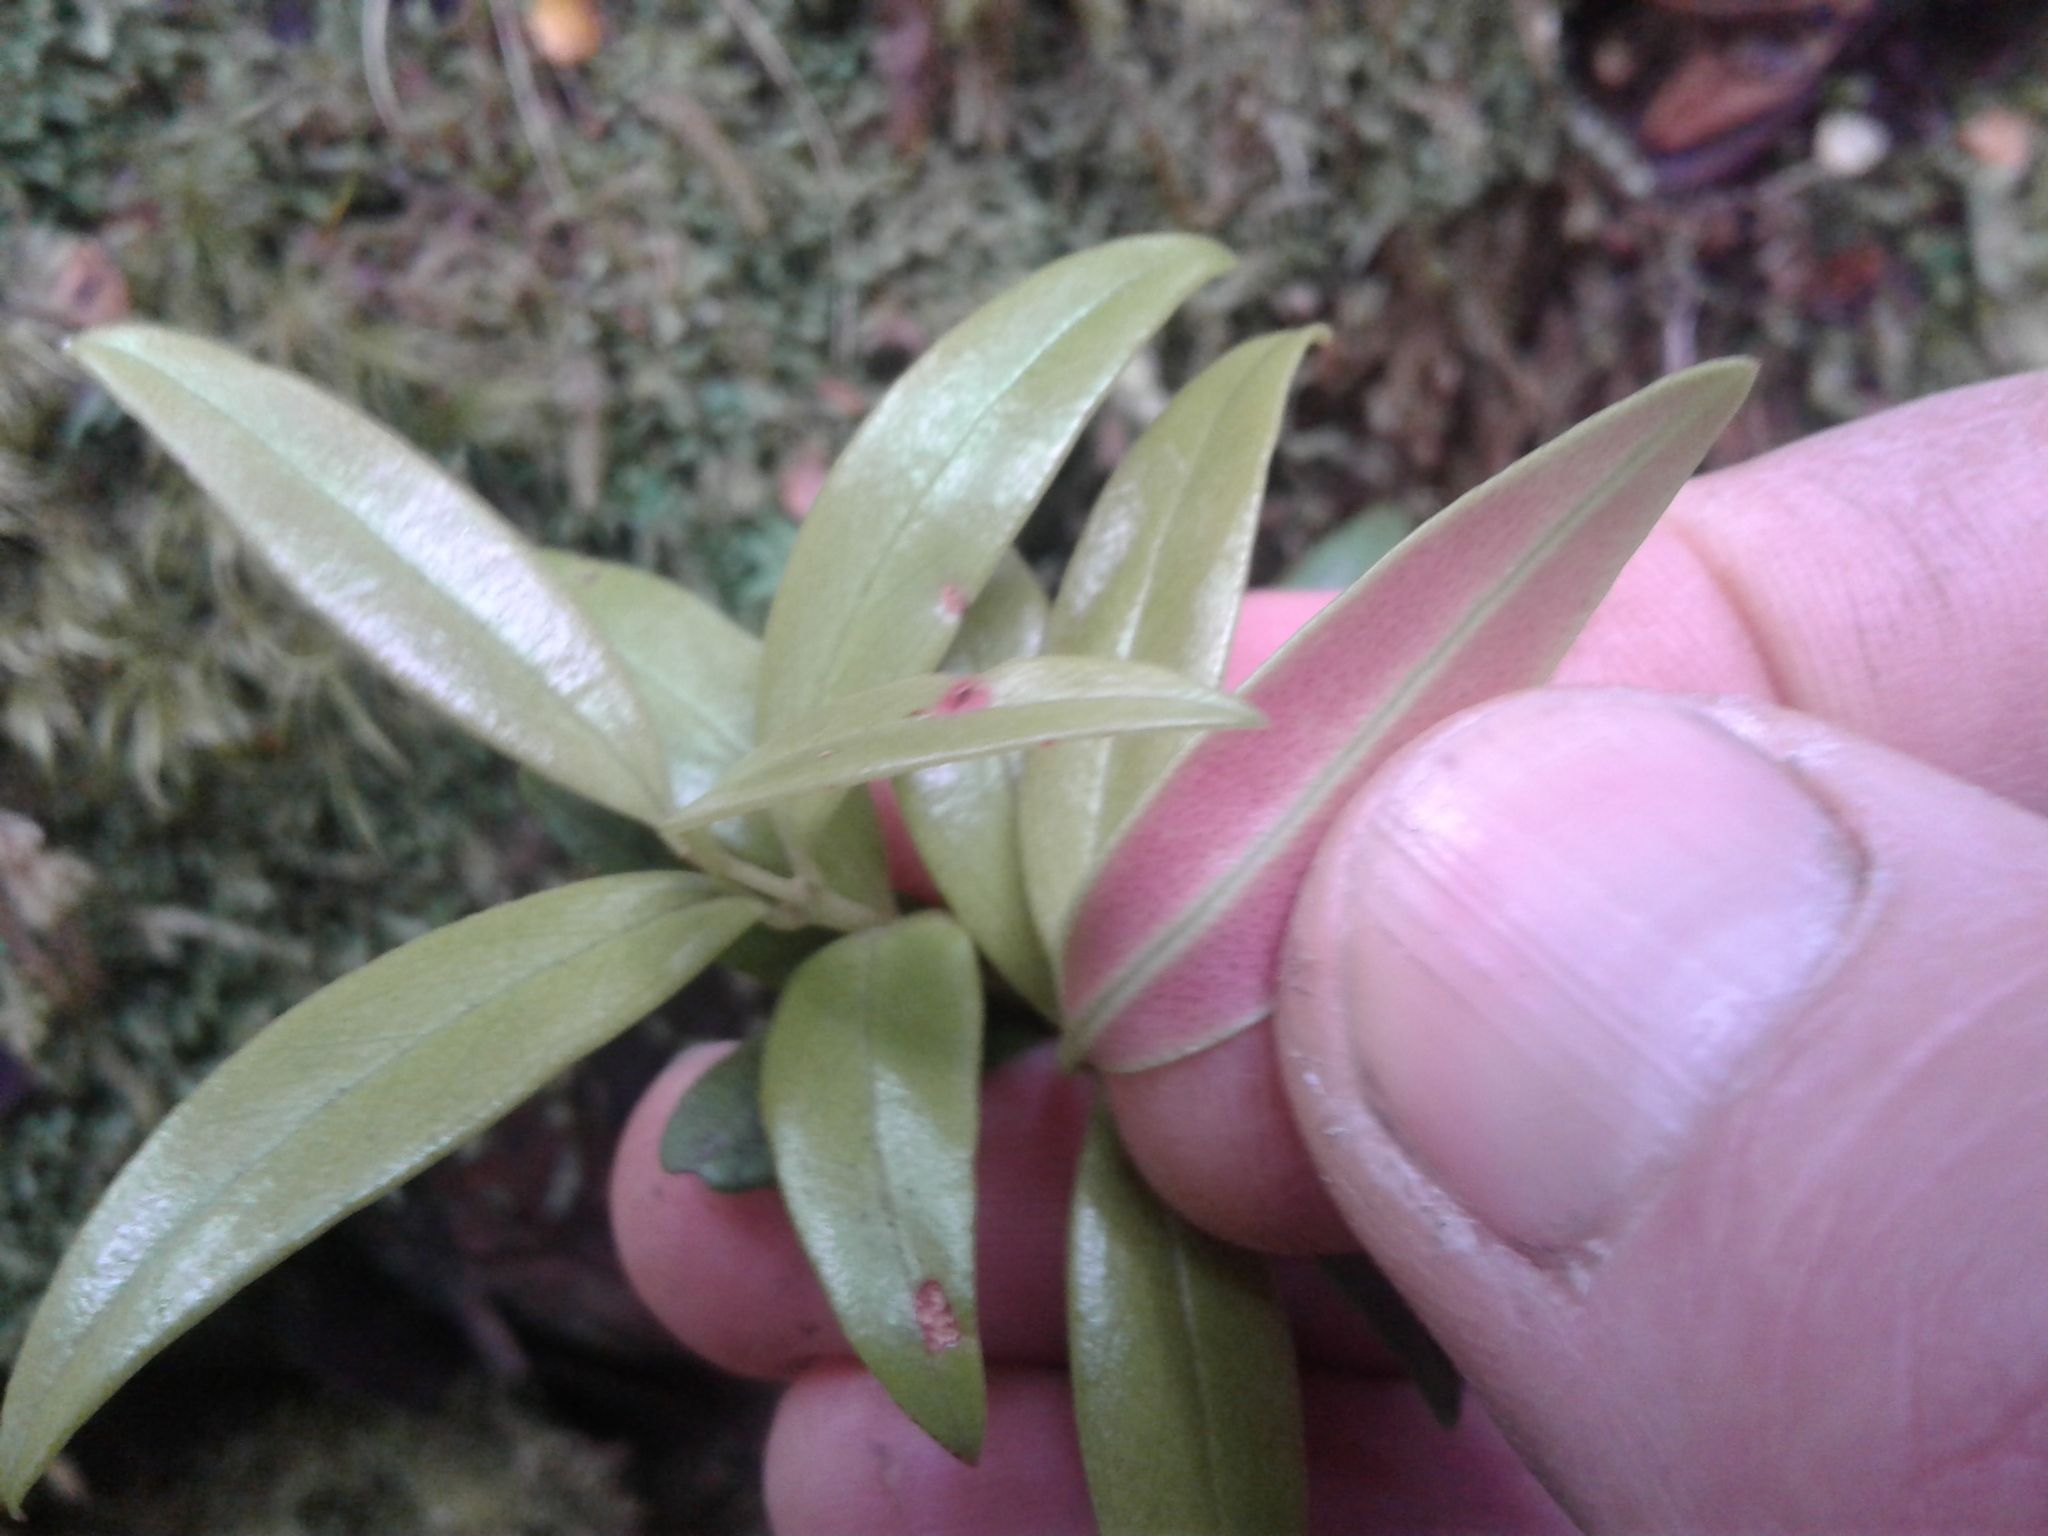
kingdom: Plantae
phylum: Tracheophyta
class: Magnoliopsida
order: Myrtales
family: Myrtaceae
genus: Metrosideros
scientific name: Metrosideros umbellata
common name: Southern rata
